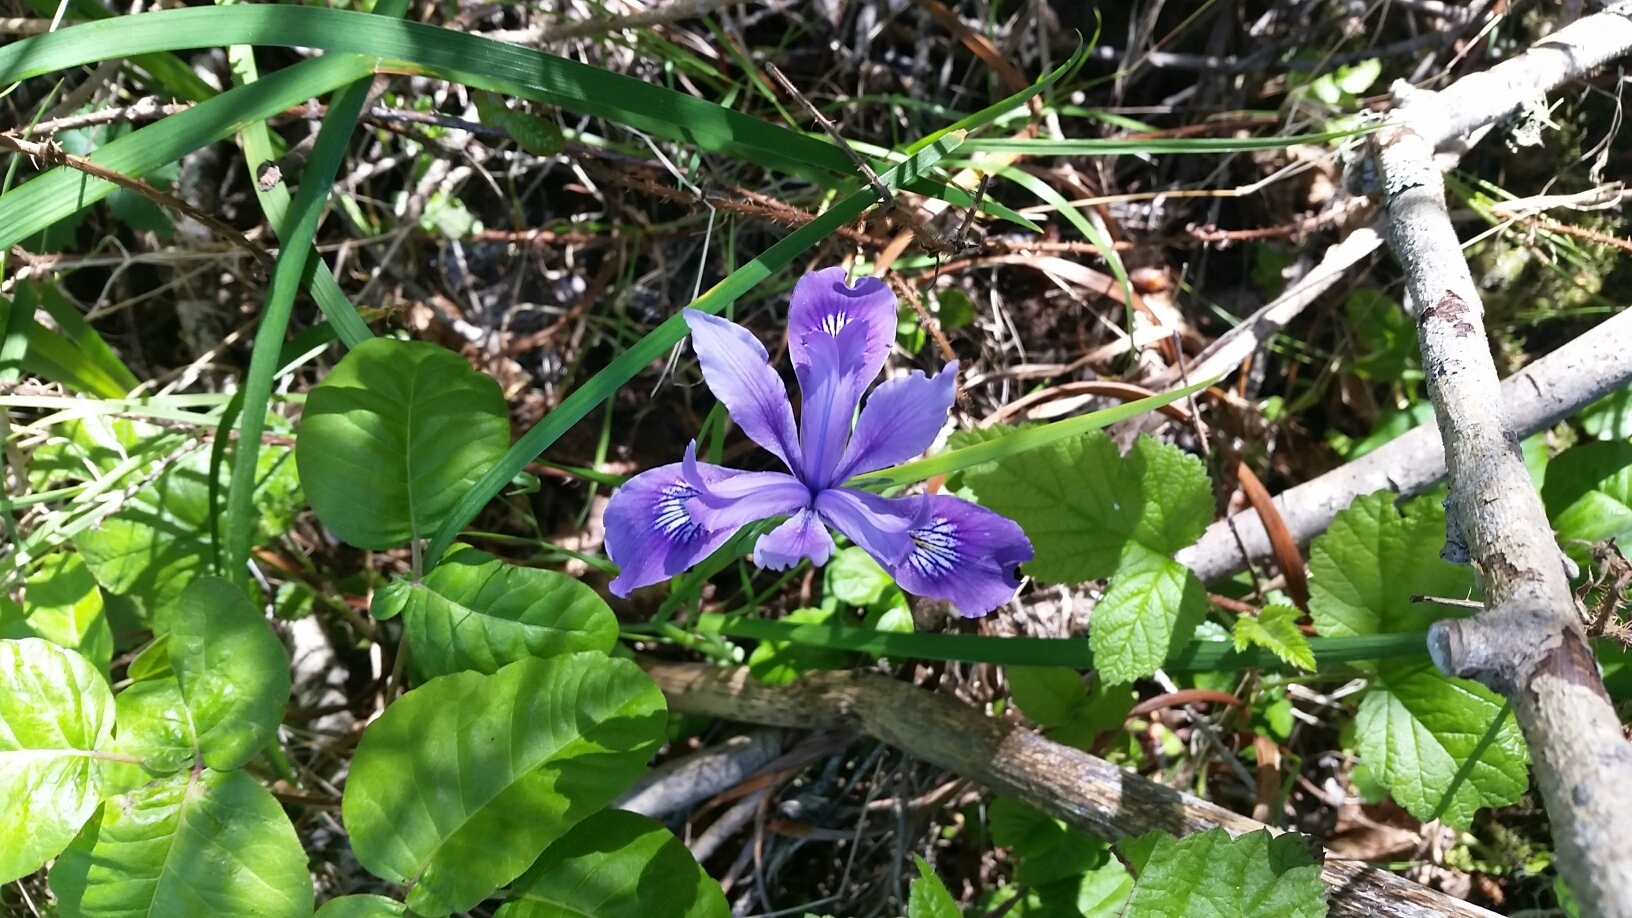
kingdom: Plantae
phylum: Tracheophyta
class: Liliopsida
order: Asparagales
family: Iridaceae
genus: Iris
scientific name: Iris douglasiana
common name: Marin iris
